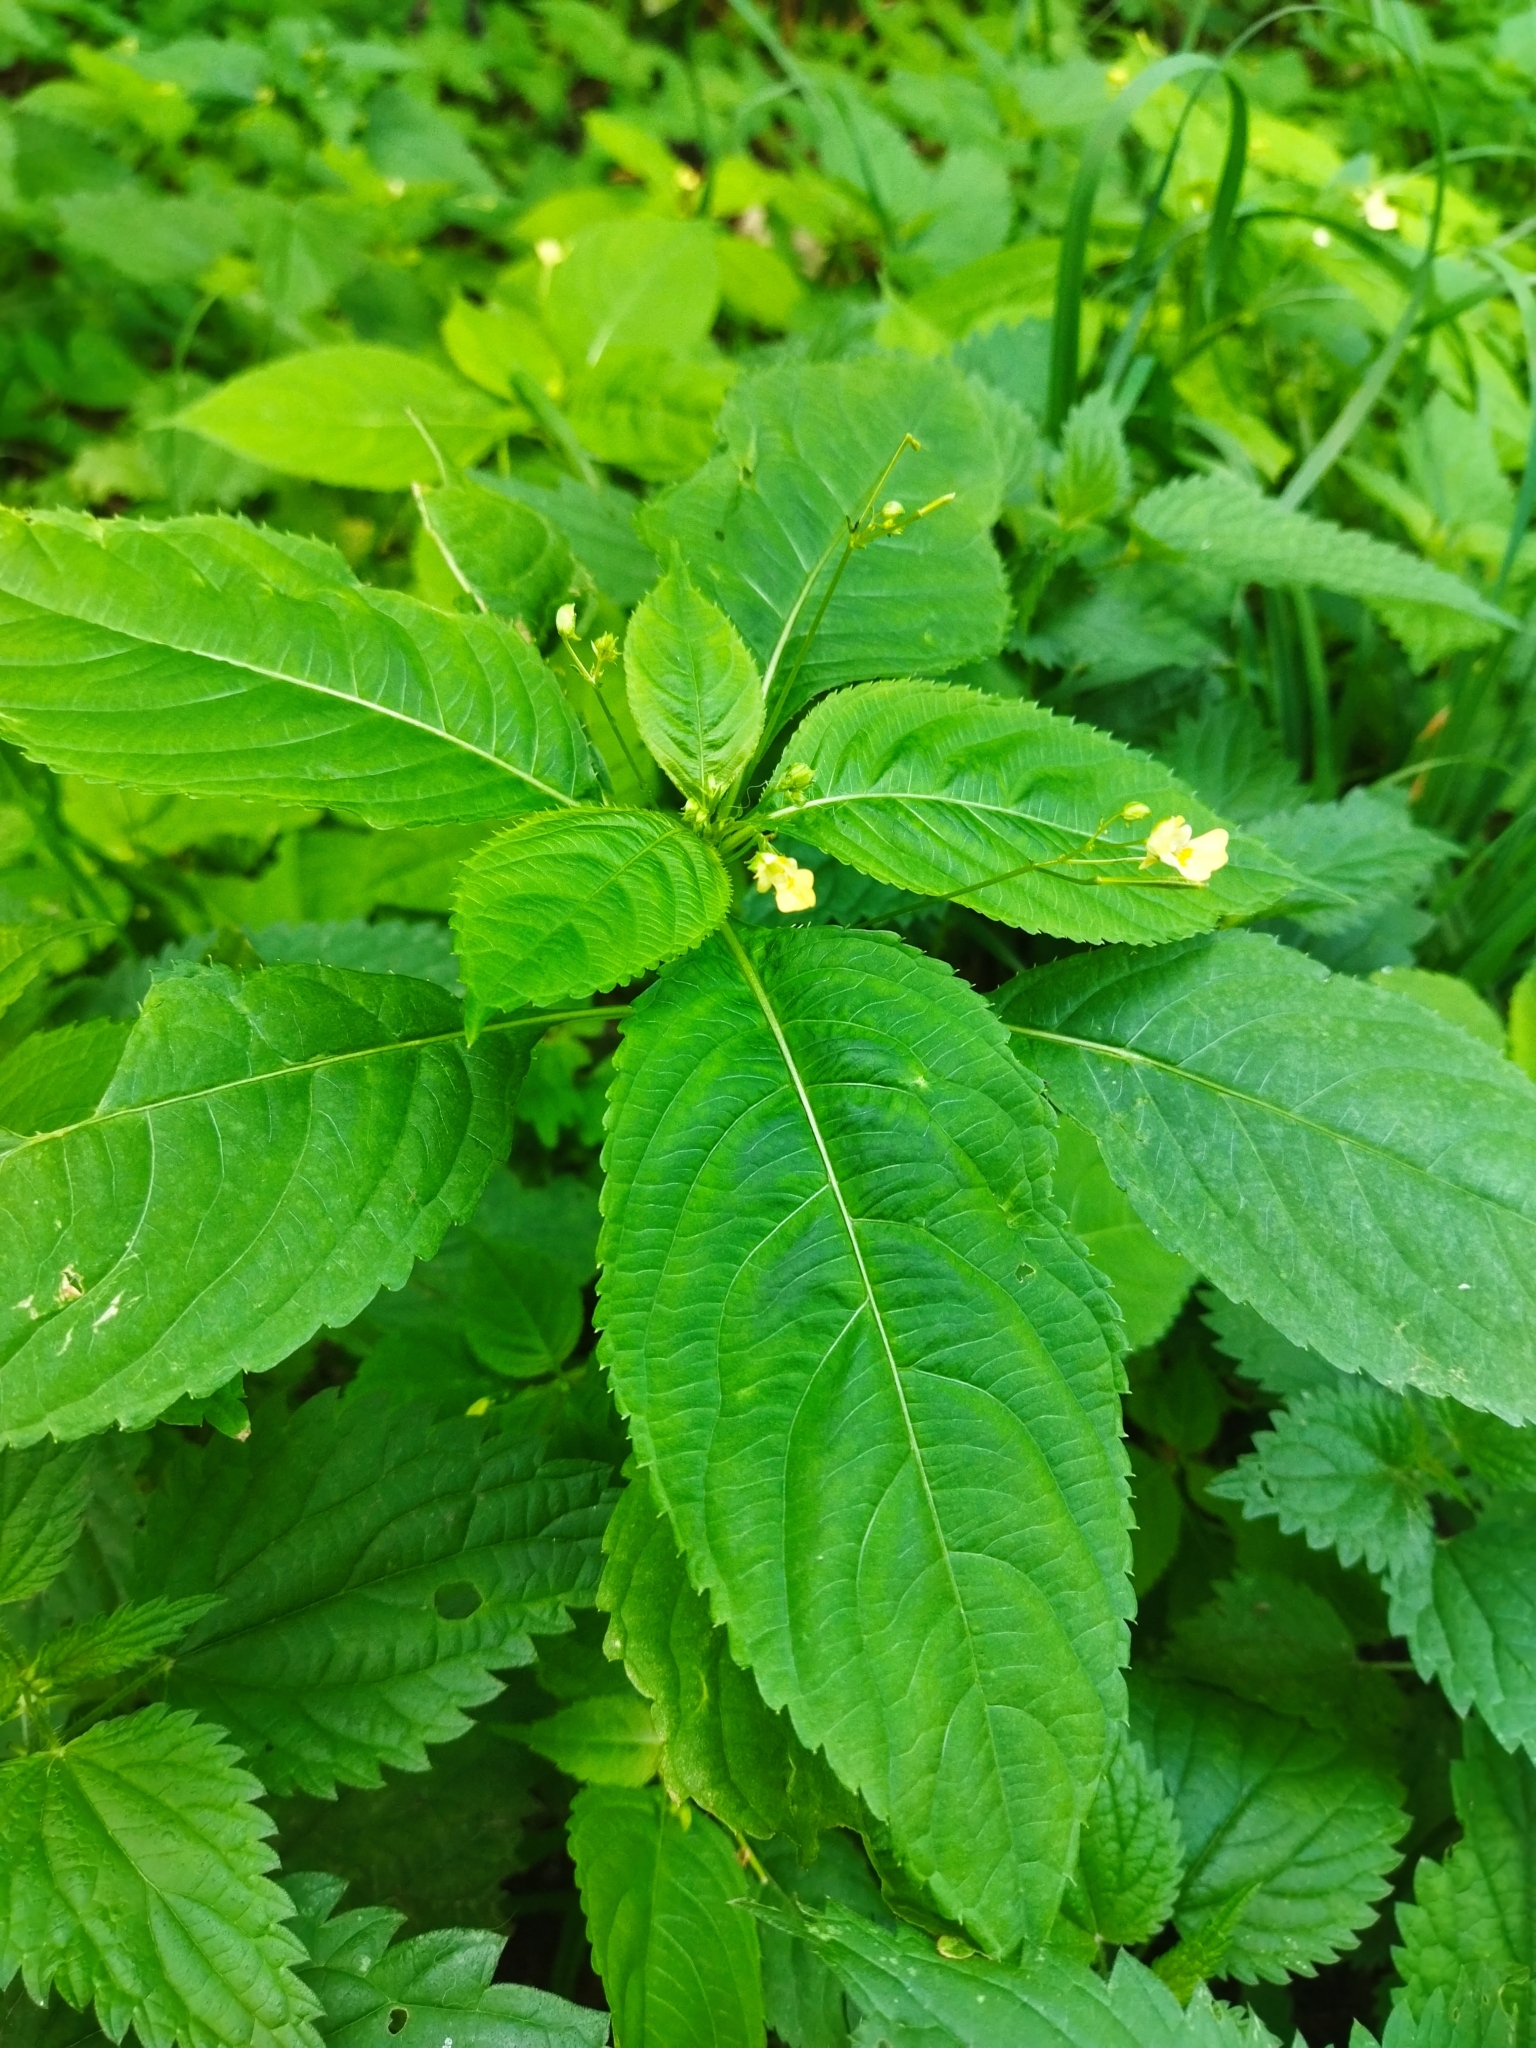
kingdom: Plantae
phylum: Tracheophyta
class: Magnoliopsida
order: Ericales
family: Balsaminaceae
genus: Impatiens
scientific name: Impatiens parviflora
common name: Small balsam
